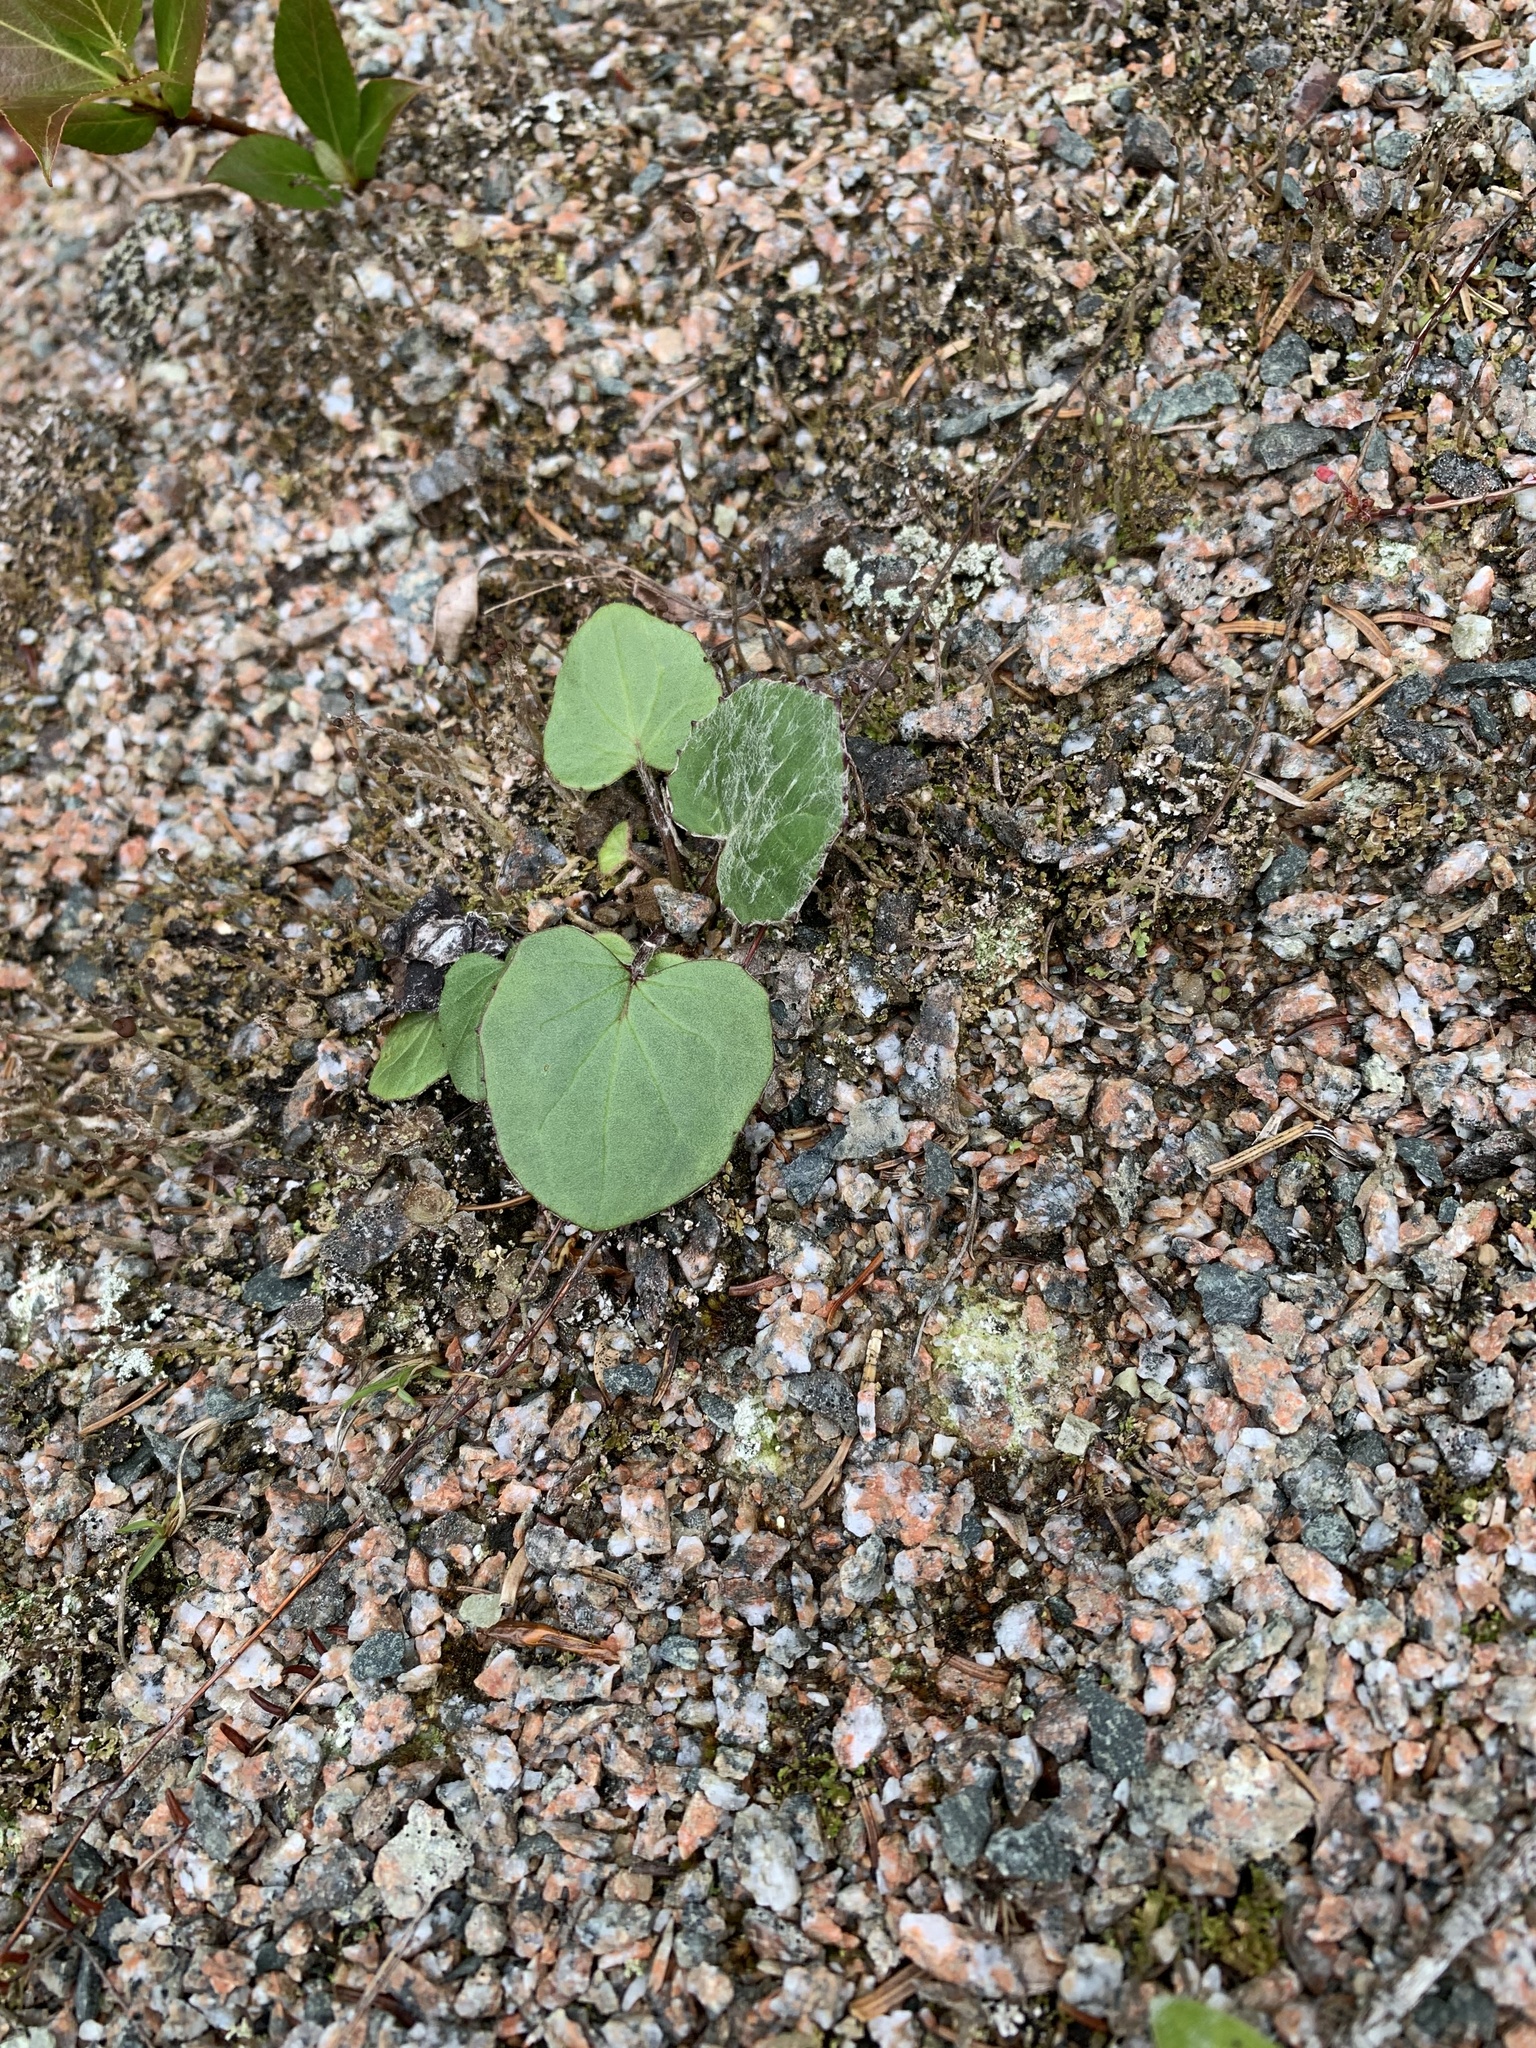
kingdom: Plantae
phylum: Tracheophyta
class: Magnoliopsida
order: Asterales
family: Asteraceae
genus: Tussilago
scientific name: Tussilago farfara
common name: Coltsfoot
